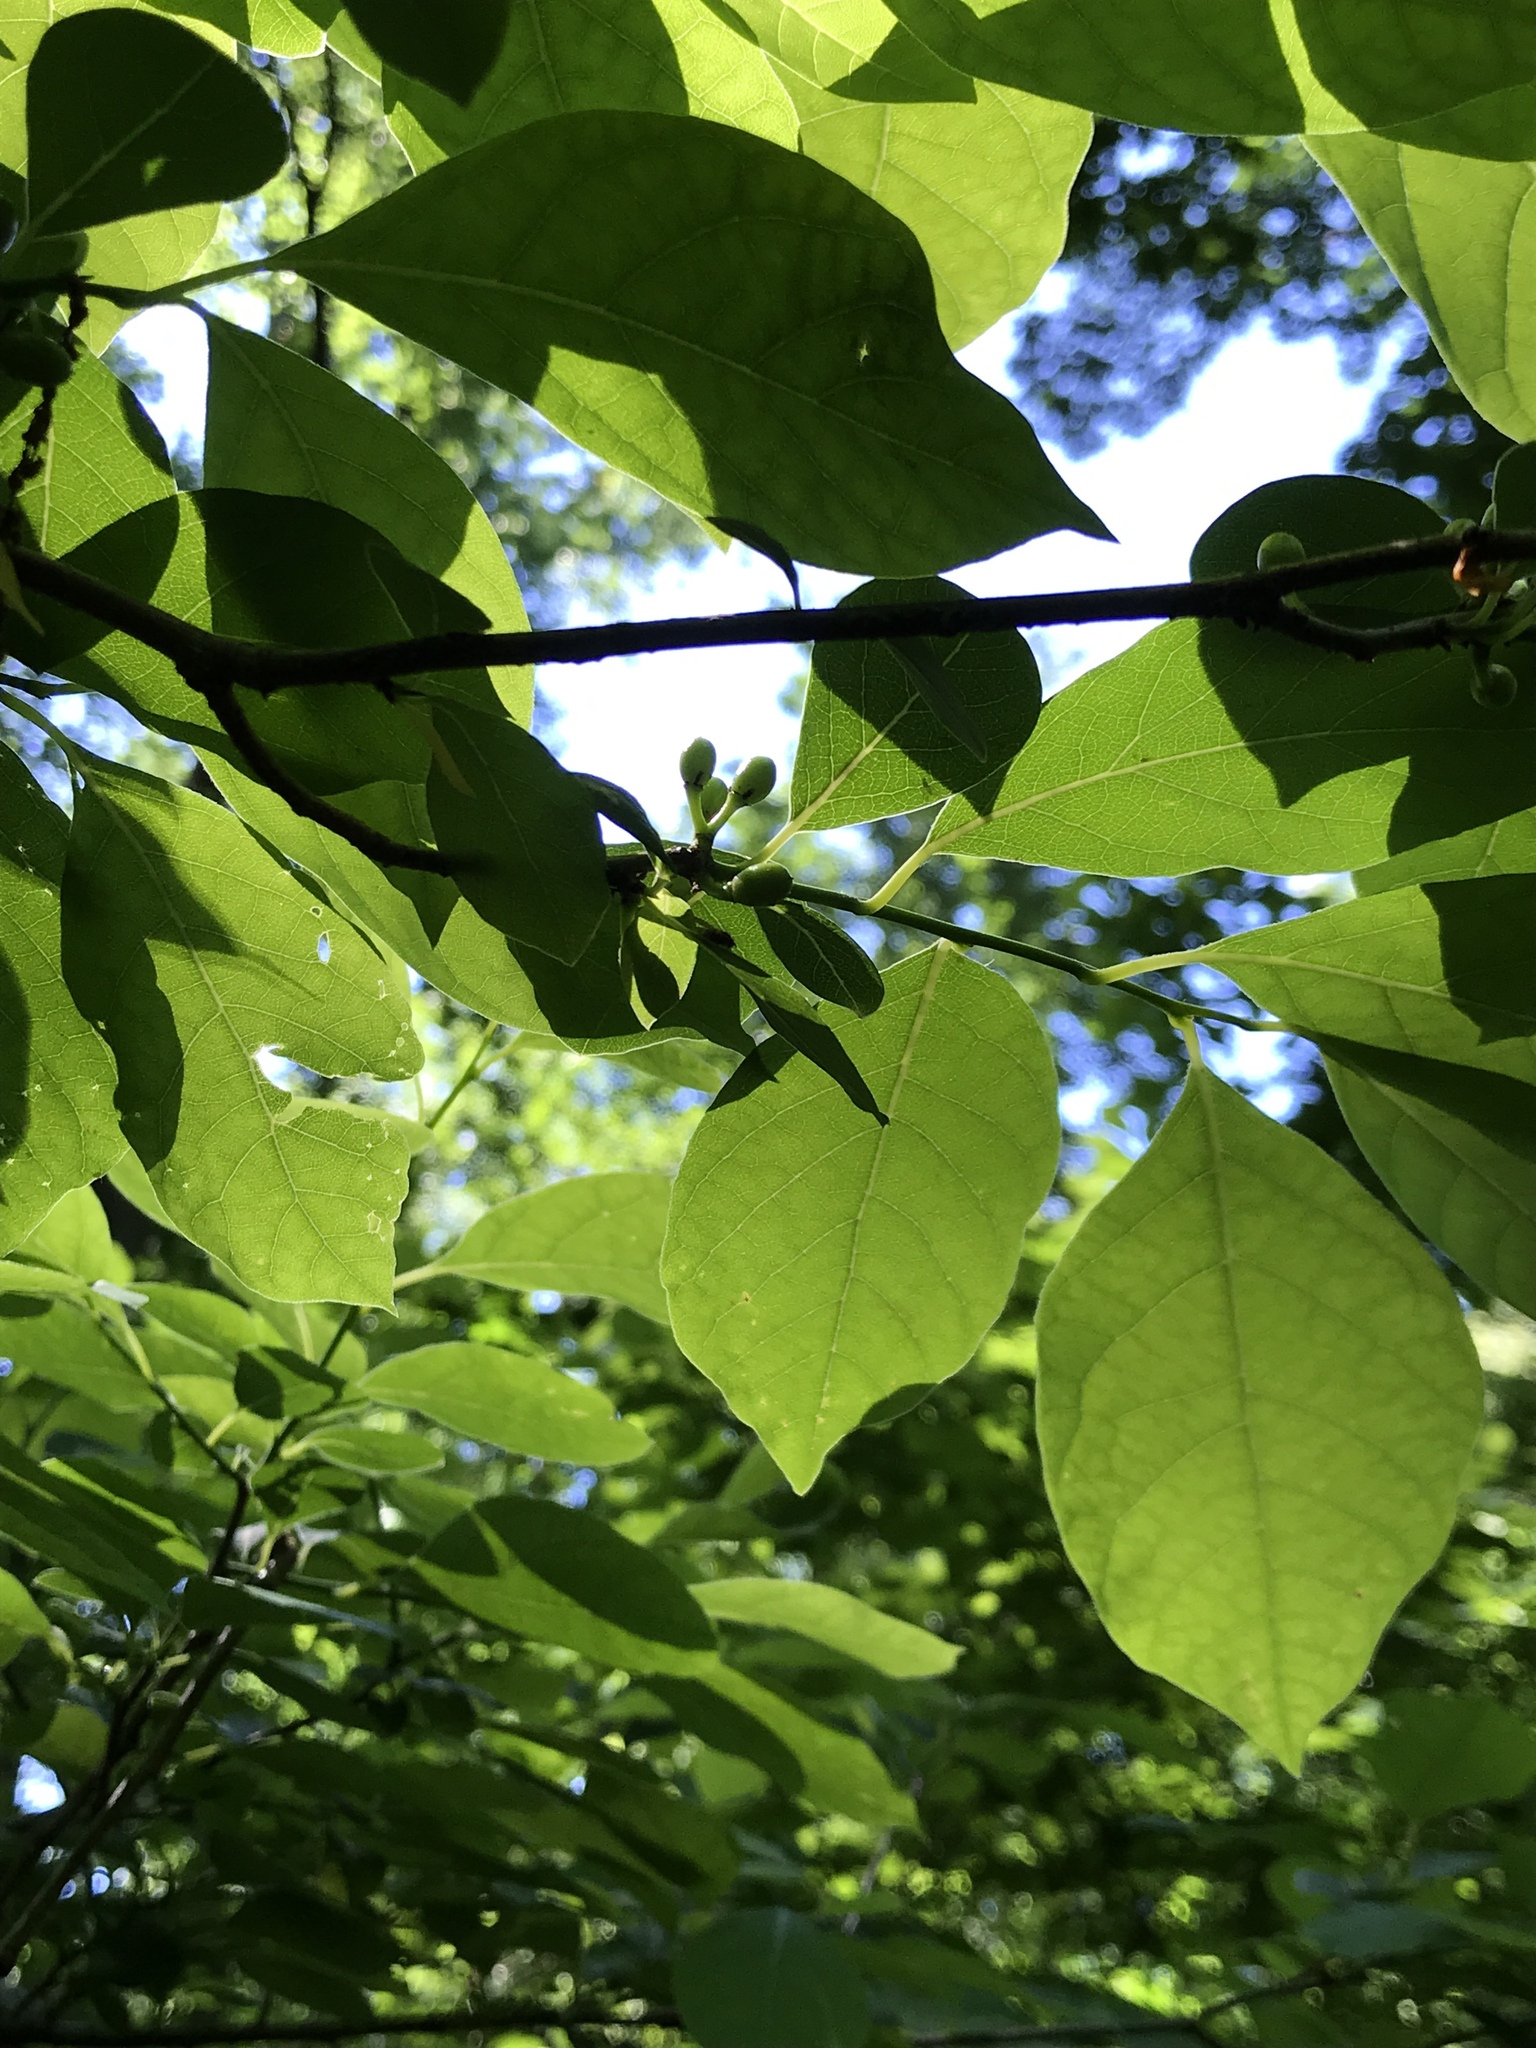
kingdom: Plantae
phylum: Tracheophyta
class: Magnoliopsida
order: Laurales
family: Lauraceae
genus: Lindera
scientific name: Lindera benzoin
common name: Spicebush
